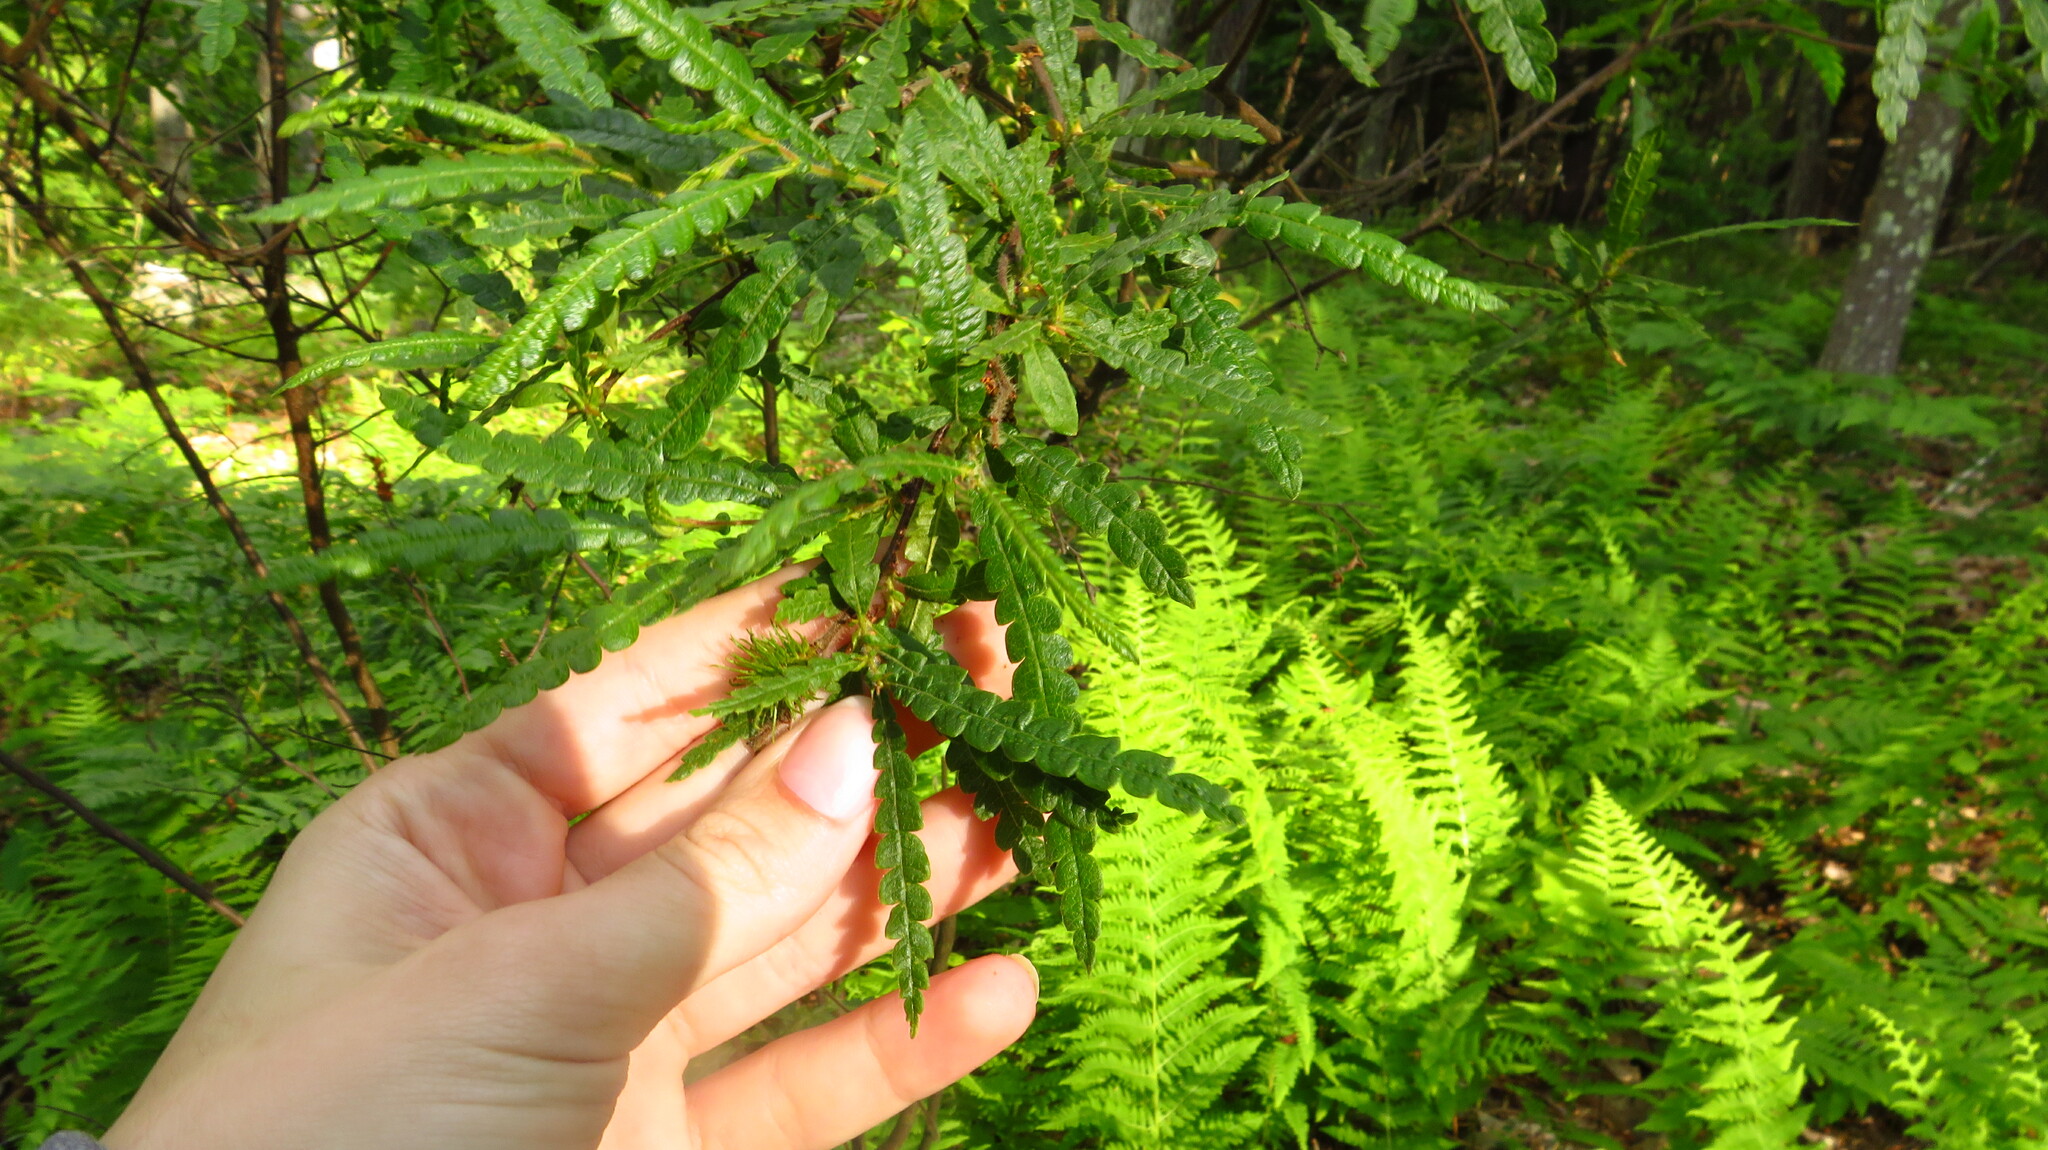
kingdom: Plantae
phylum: Tracheophyta
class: Magnoliopsida
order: Fagales
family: Myricaceae
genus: Comptonia
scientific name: Comptonia peregrina
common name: Sweet-fern
